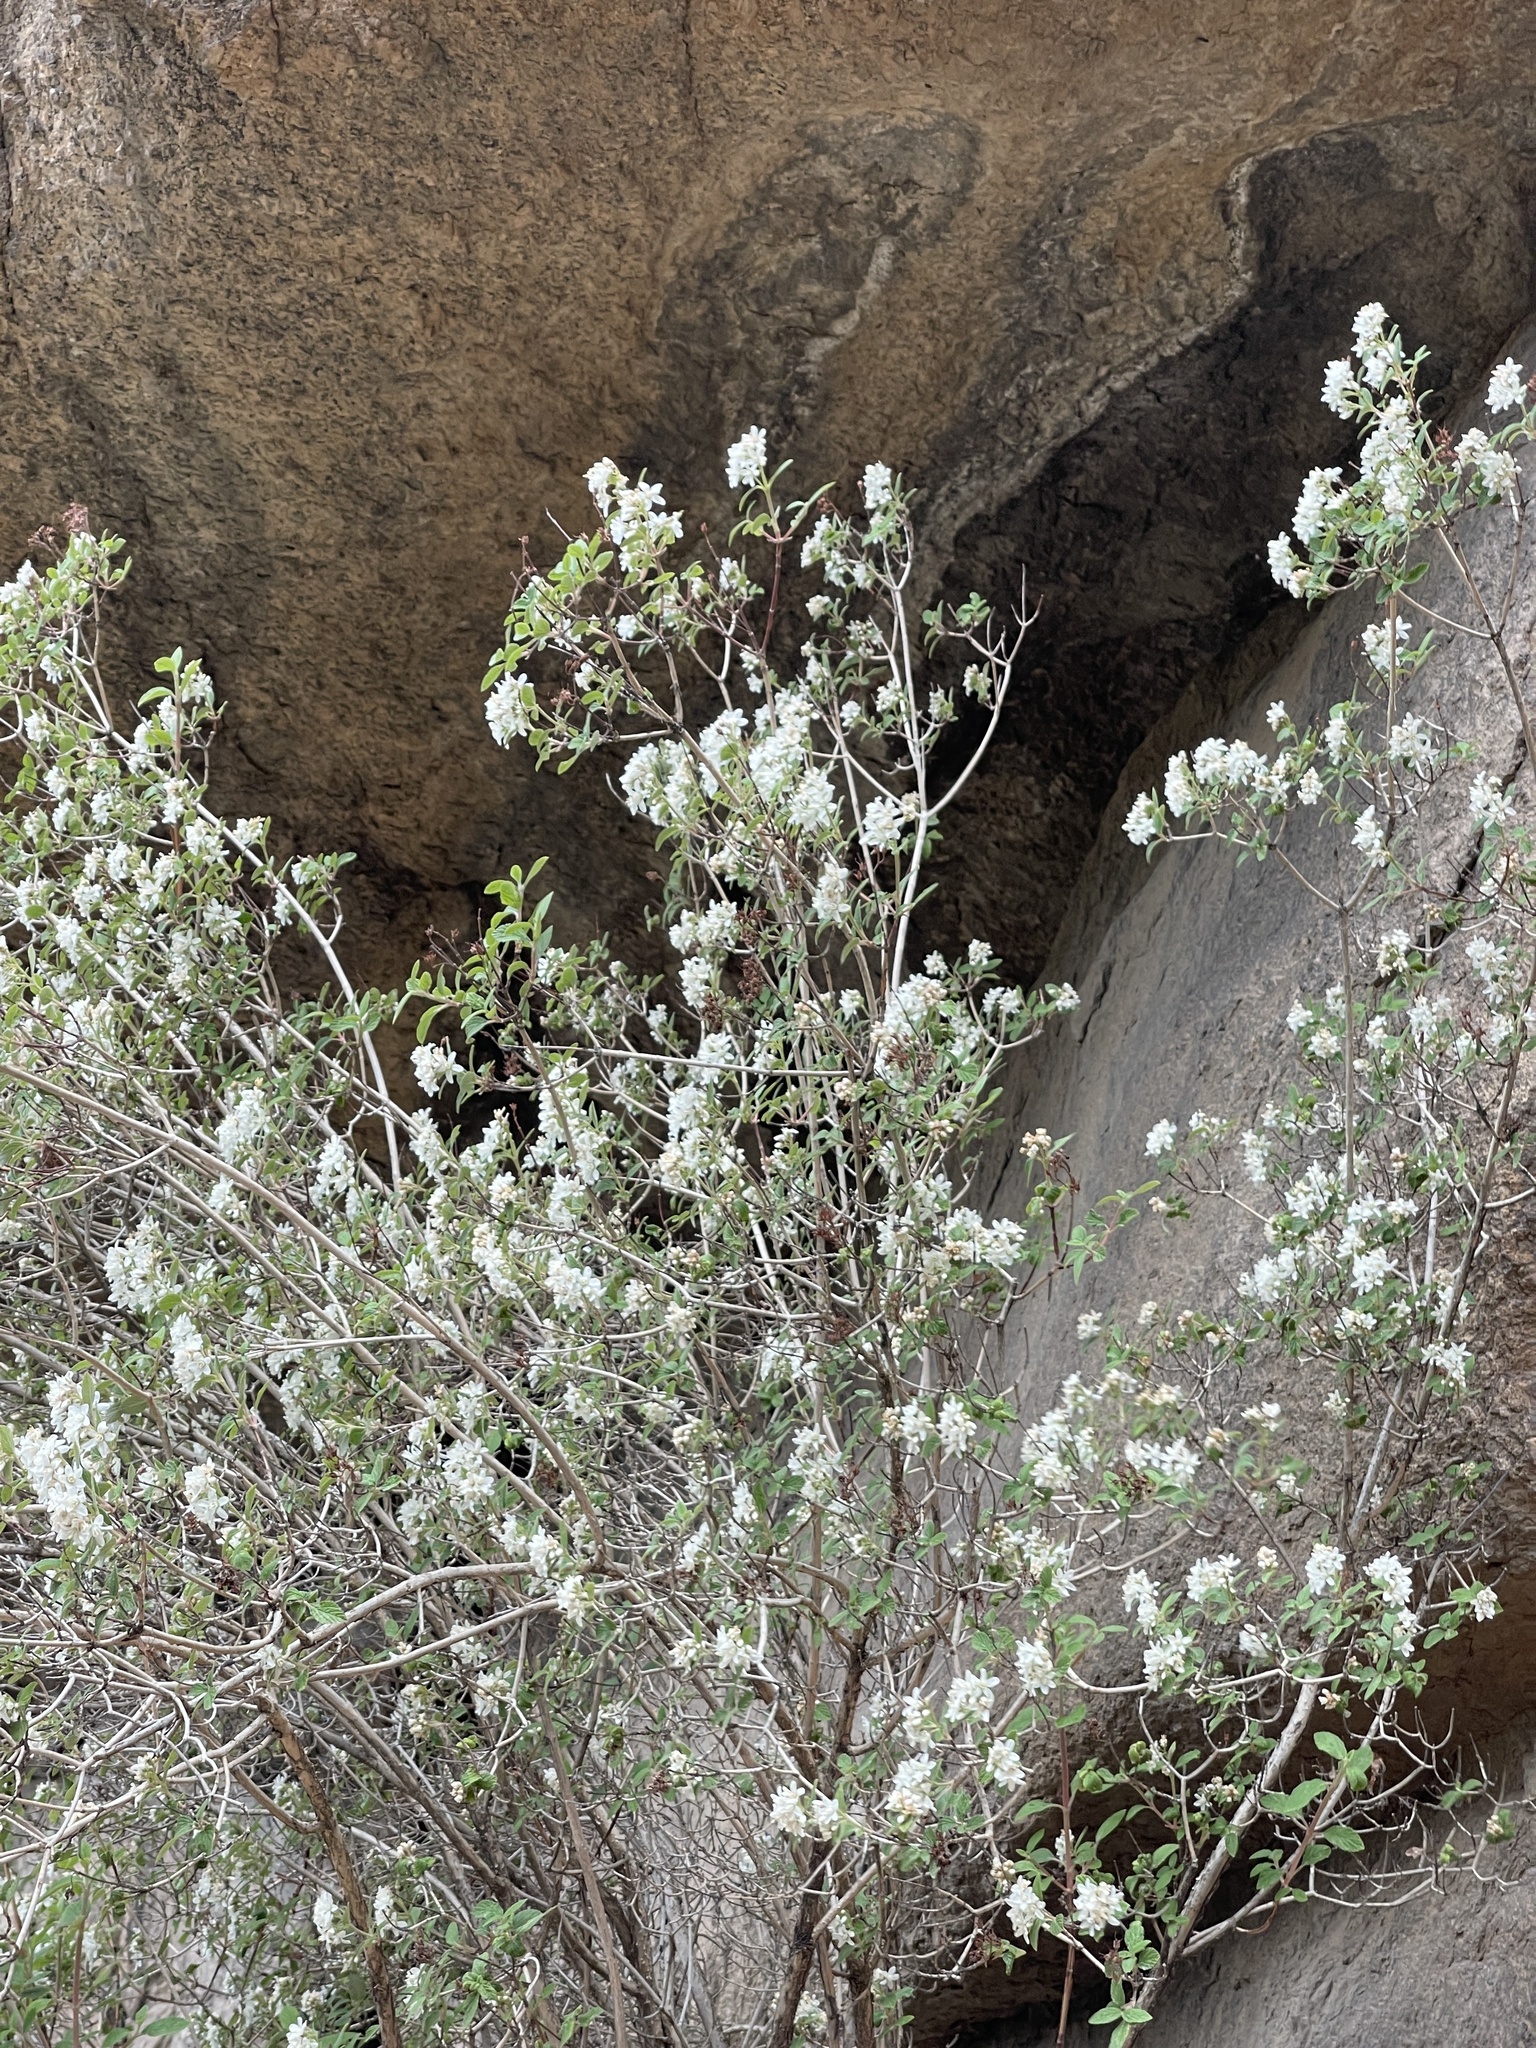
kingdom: Plantae
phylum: Tracheophyta
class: Magnoliopsida
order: Cornales
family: Hydrangeaceae
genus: Jamesia
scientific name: Jamesia americana
